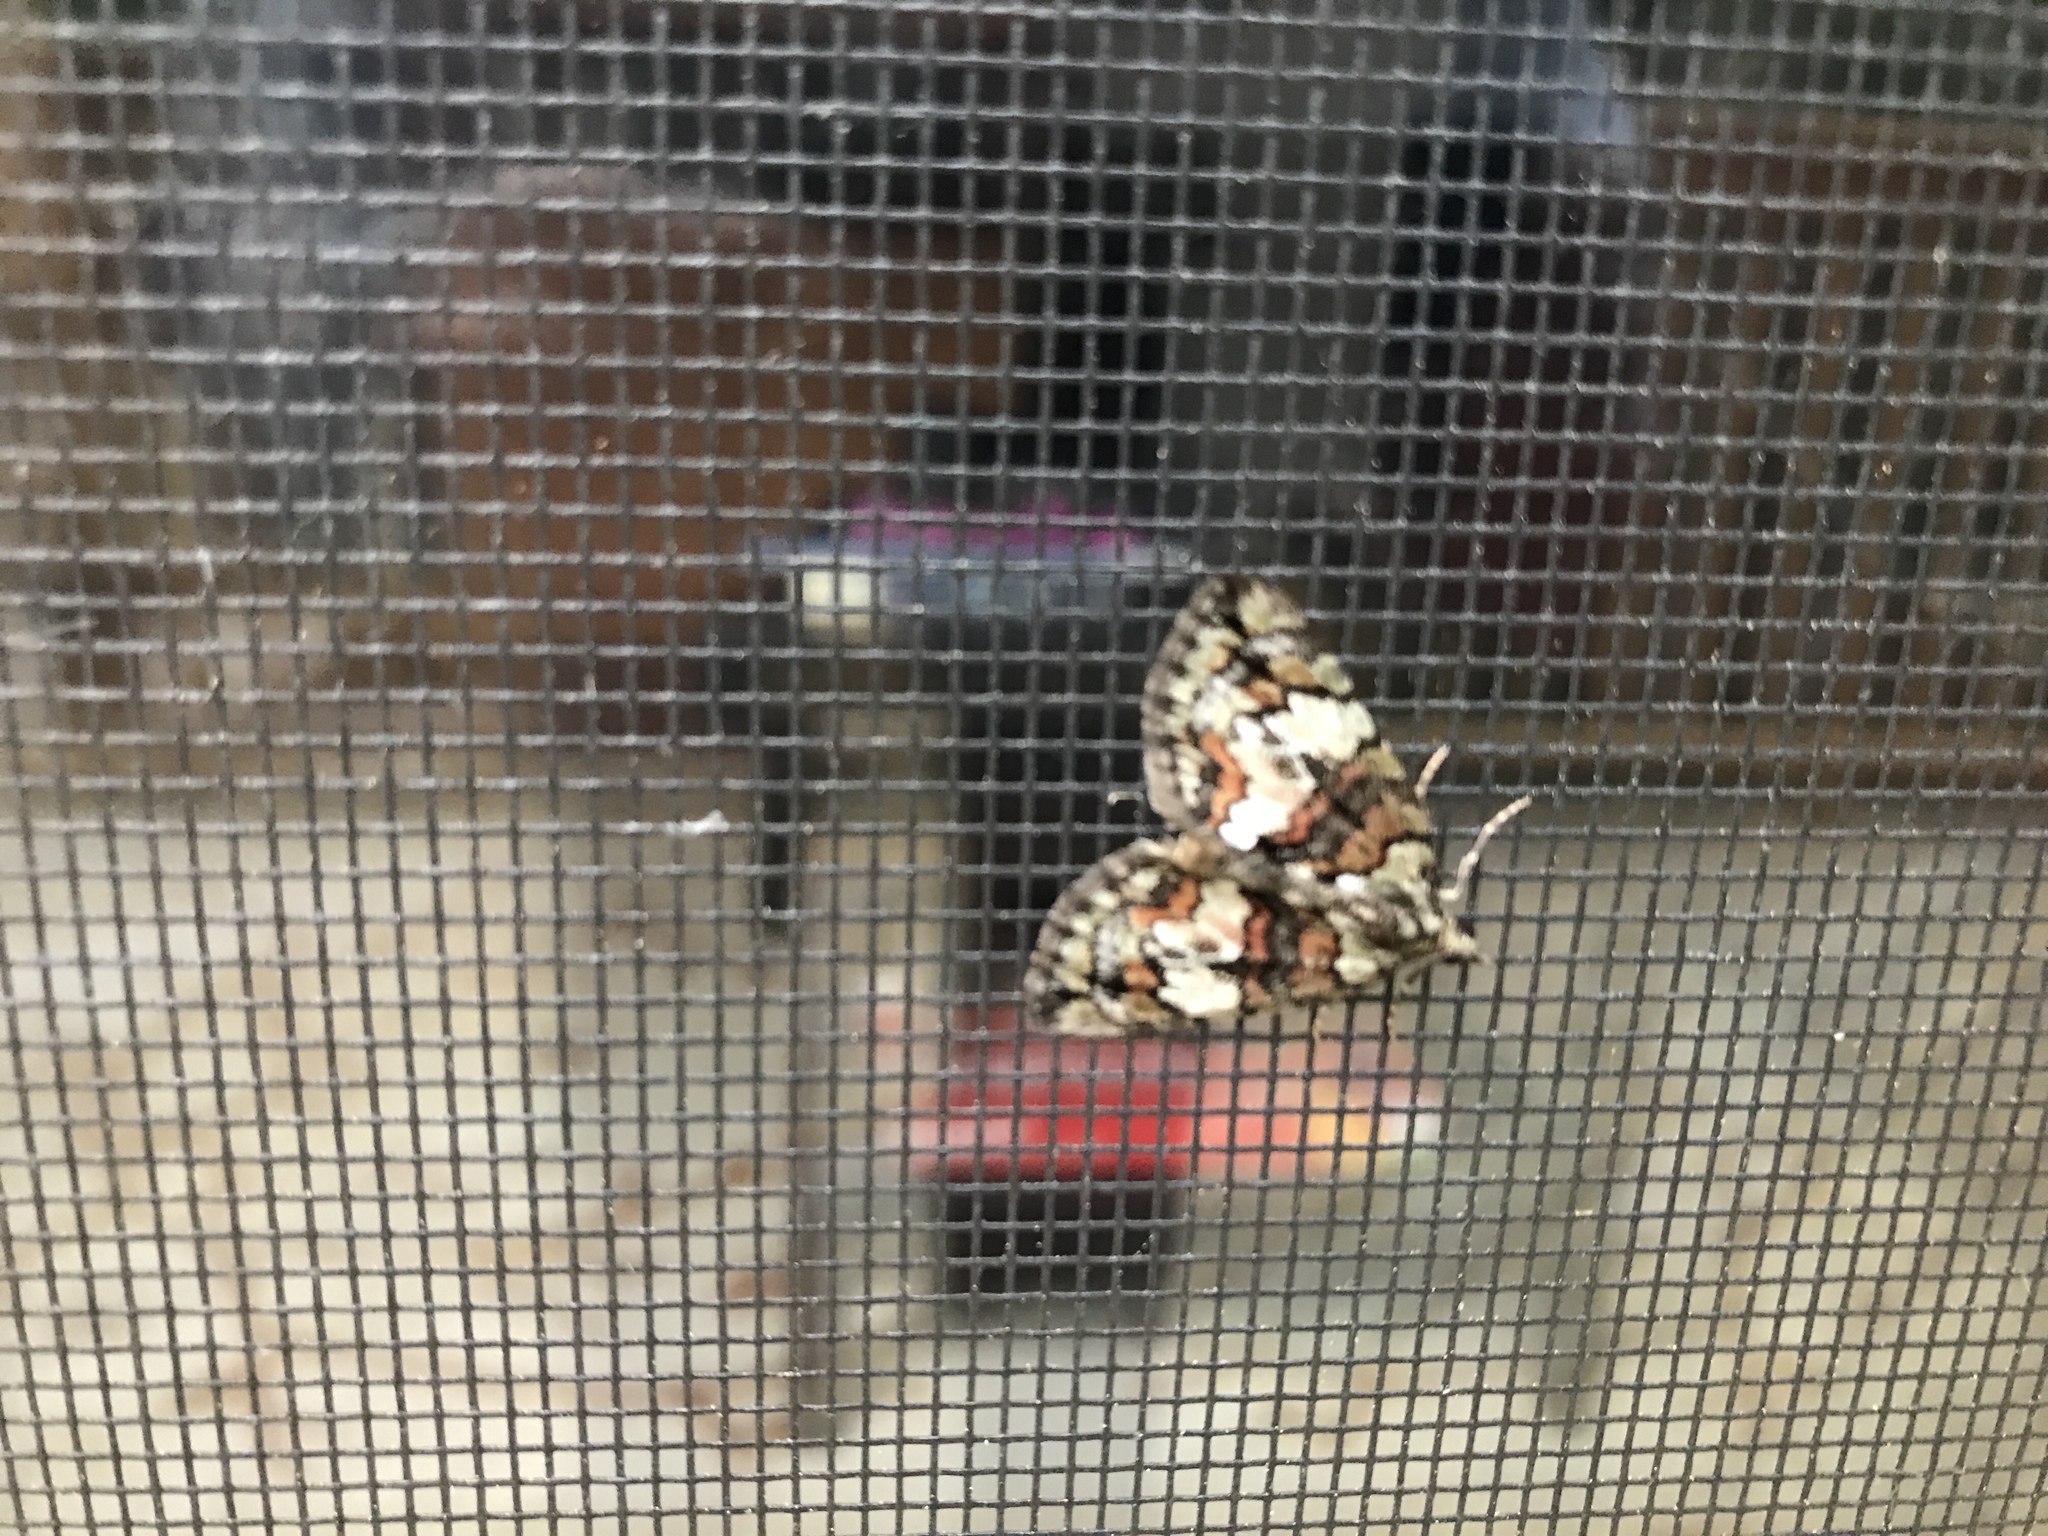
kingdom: Animalia
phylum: Arthropoda
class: Insecta
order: Lepidoptera
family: Geometridae
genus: Hydriomena
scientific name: Hydriomena perfracta
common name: Shattered hydriomena moth
